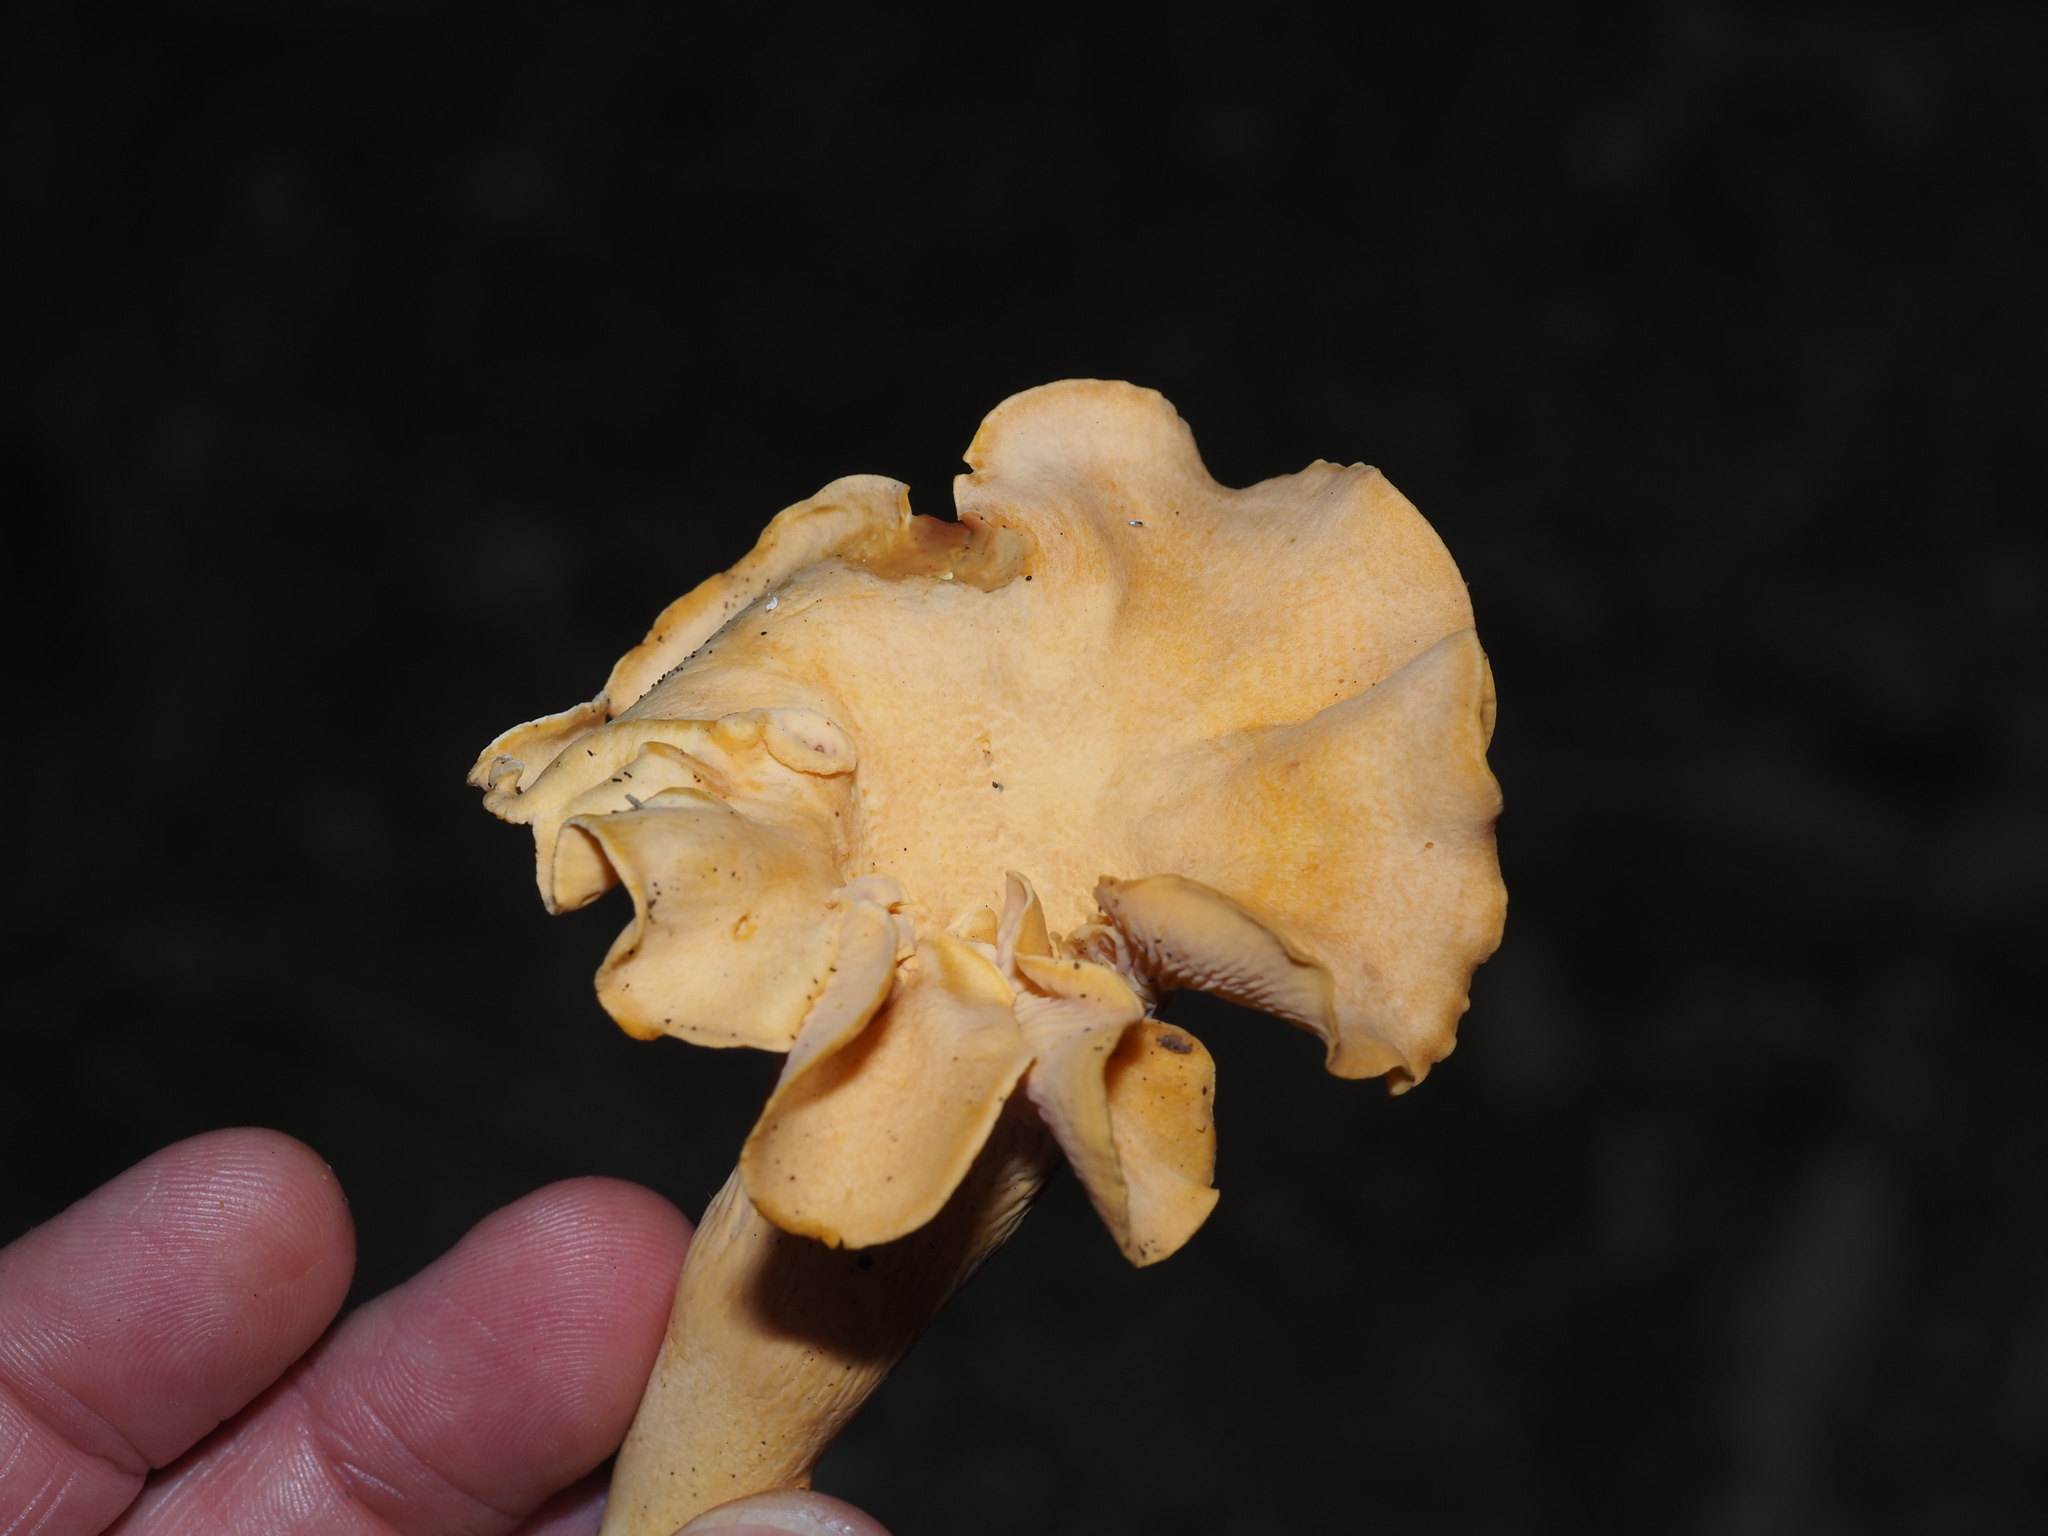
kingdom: Fungi
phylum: Basidiomycota
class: Agaricomycetes
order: Cantharellales
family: Hydnaceae
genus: Cantharellus
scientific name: Cantharellus lateritius
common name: Smooth chanterelle
